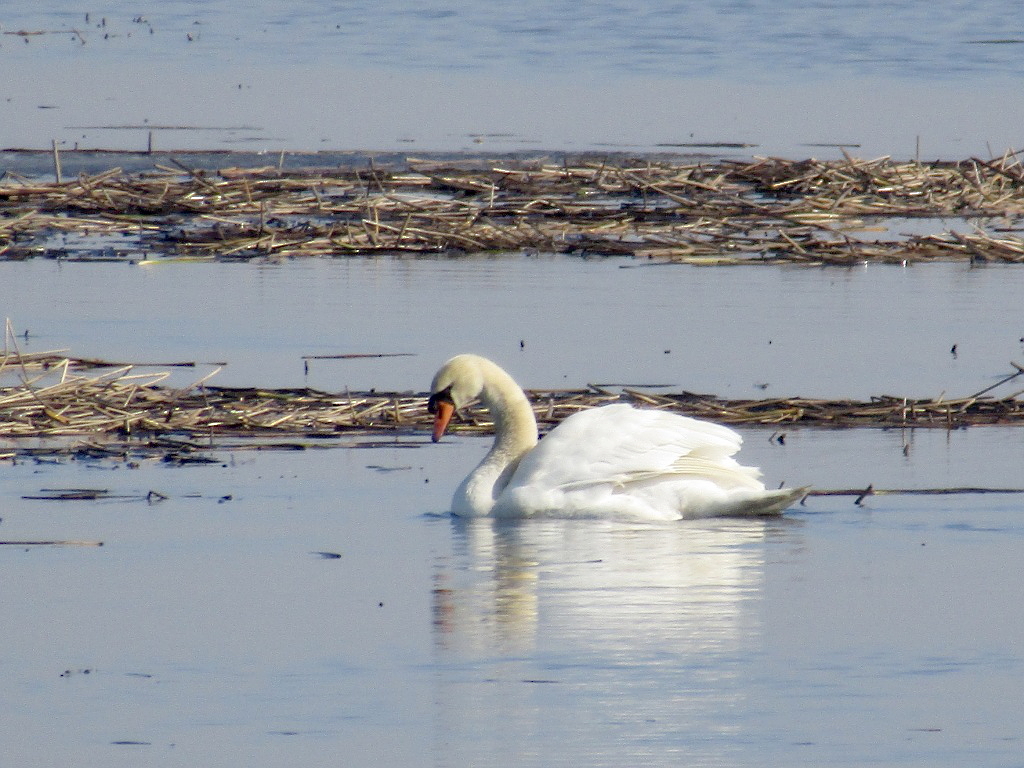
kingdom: Animalia
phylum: Chordata
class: Aves
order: Anseriformes
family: Anatidae
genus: Cygnus
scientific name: Cygnus olor
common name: Mute swan
